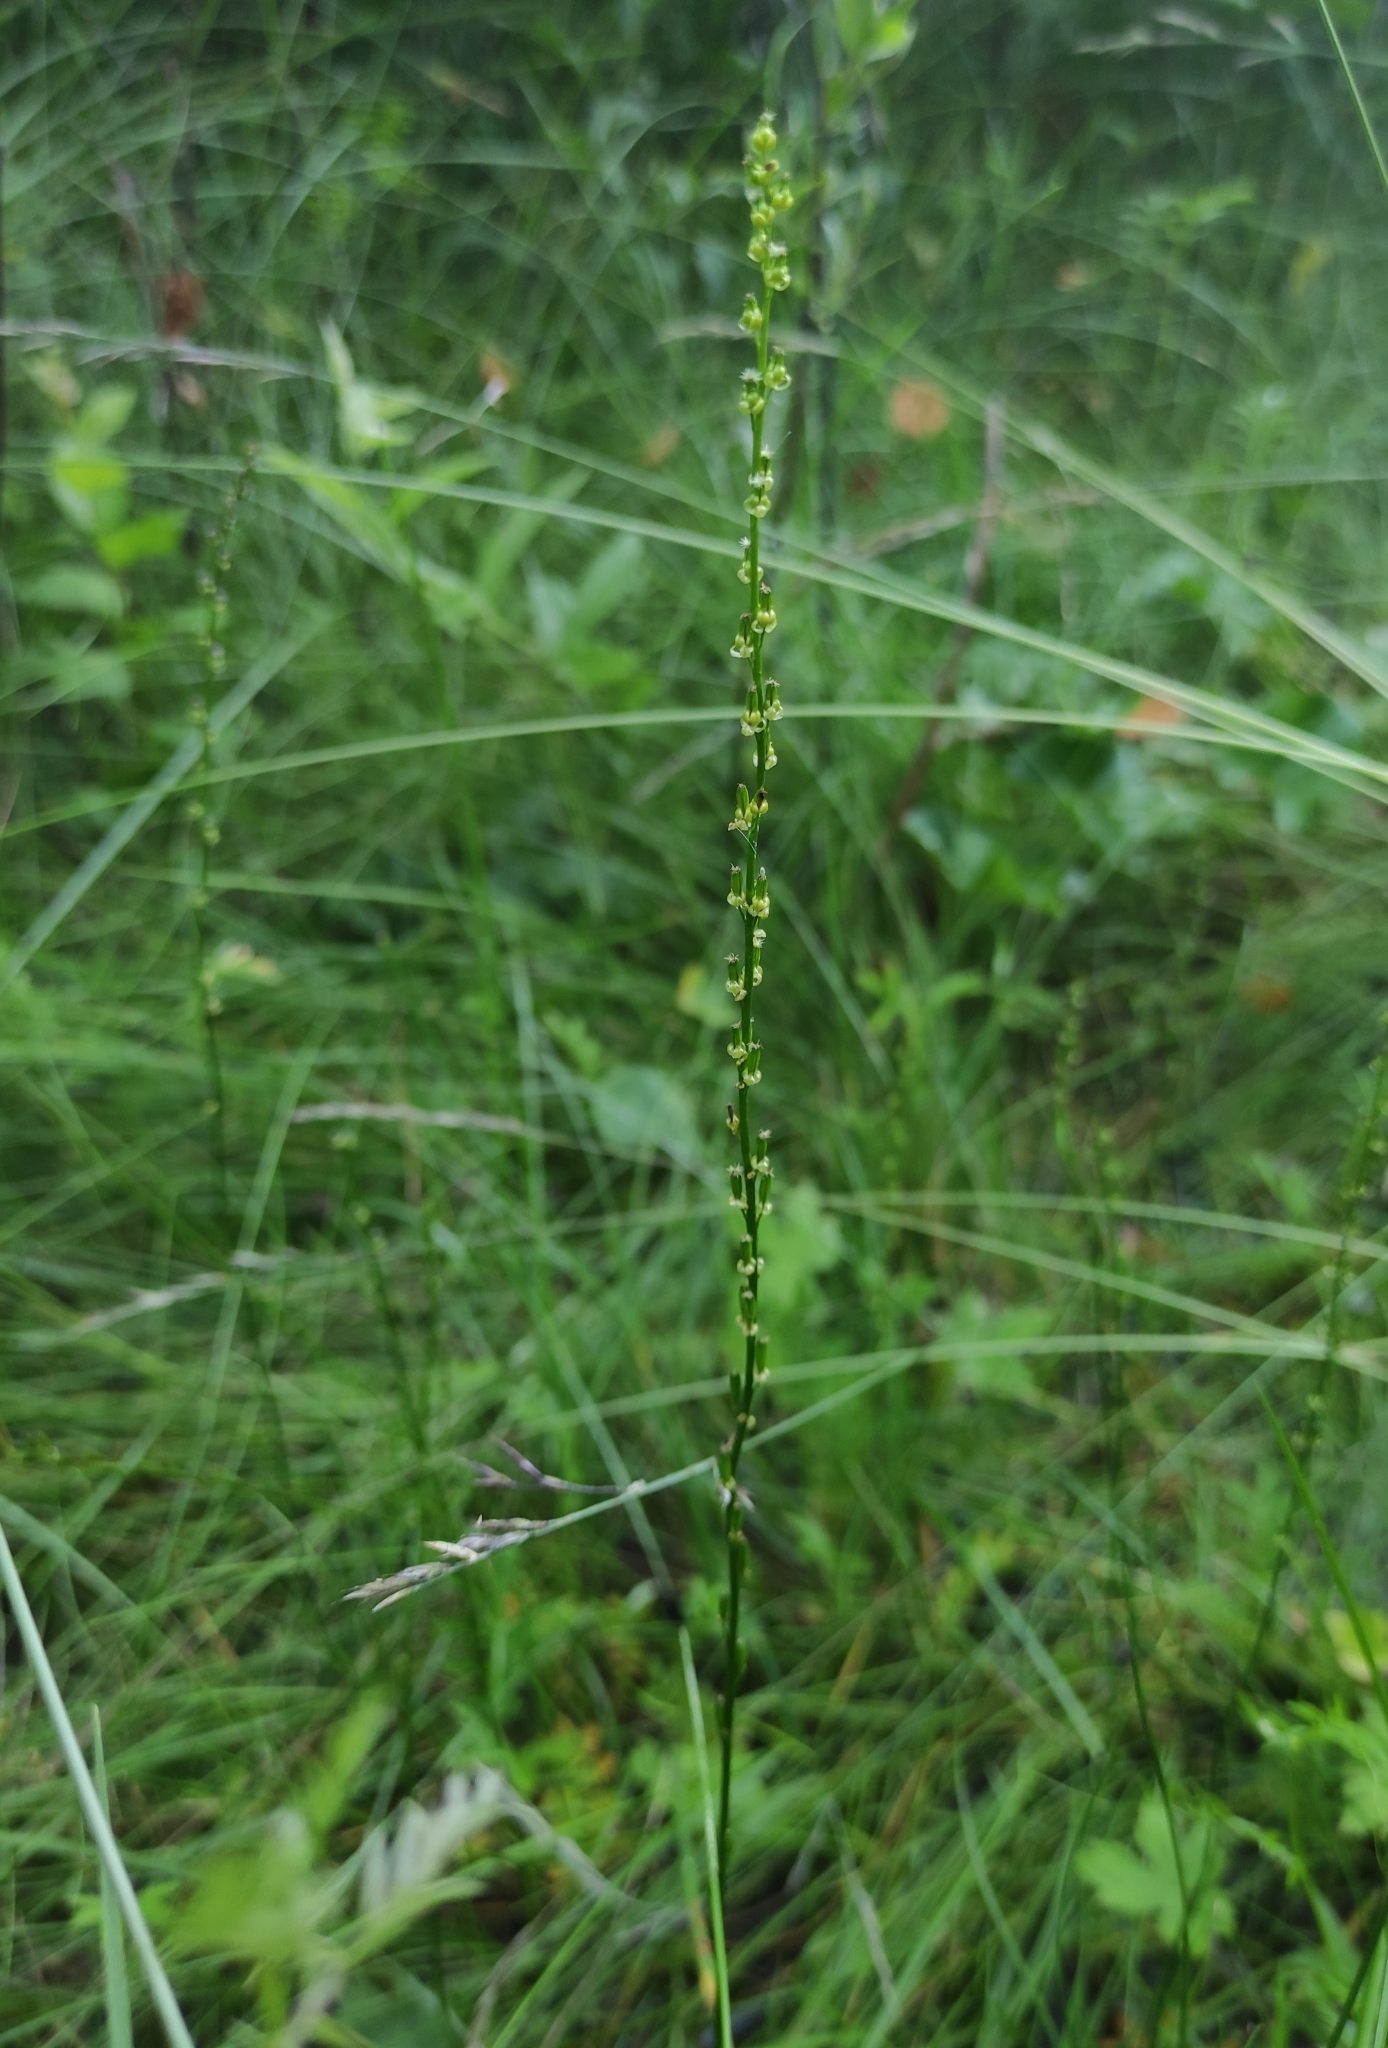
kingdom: Plantae
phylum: Tracheophyta
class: Liliopsida
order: Alismatales
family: Juncaginaceae
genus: Triglochin
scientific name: Triglochin palustris
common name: Marsh arrowgrass
